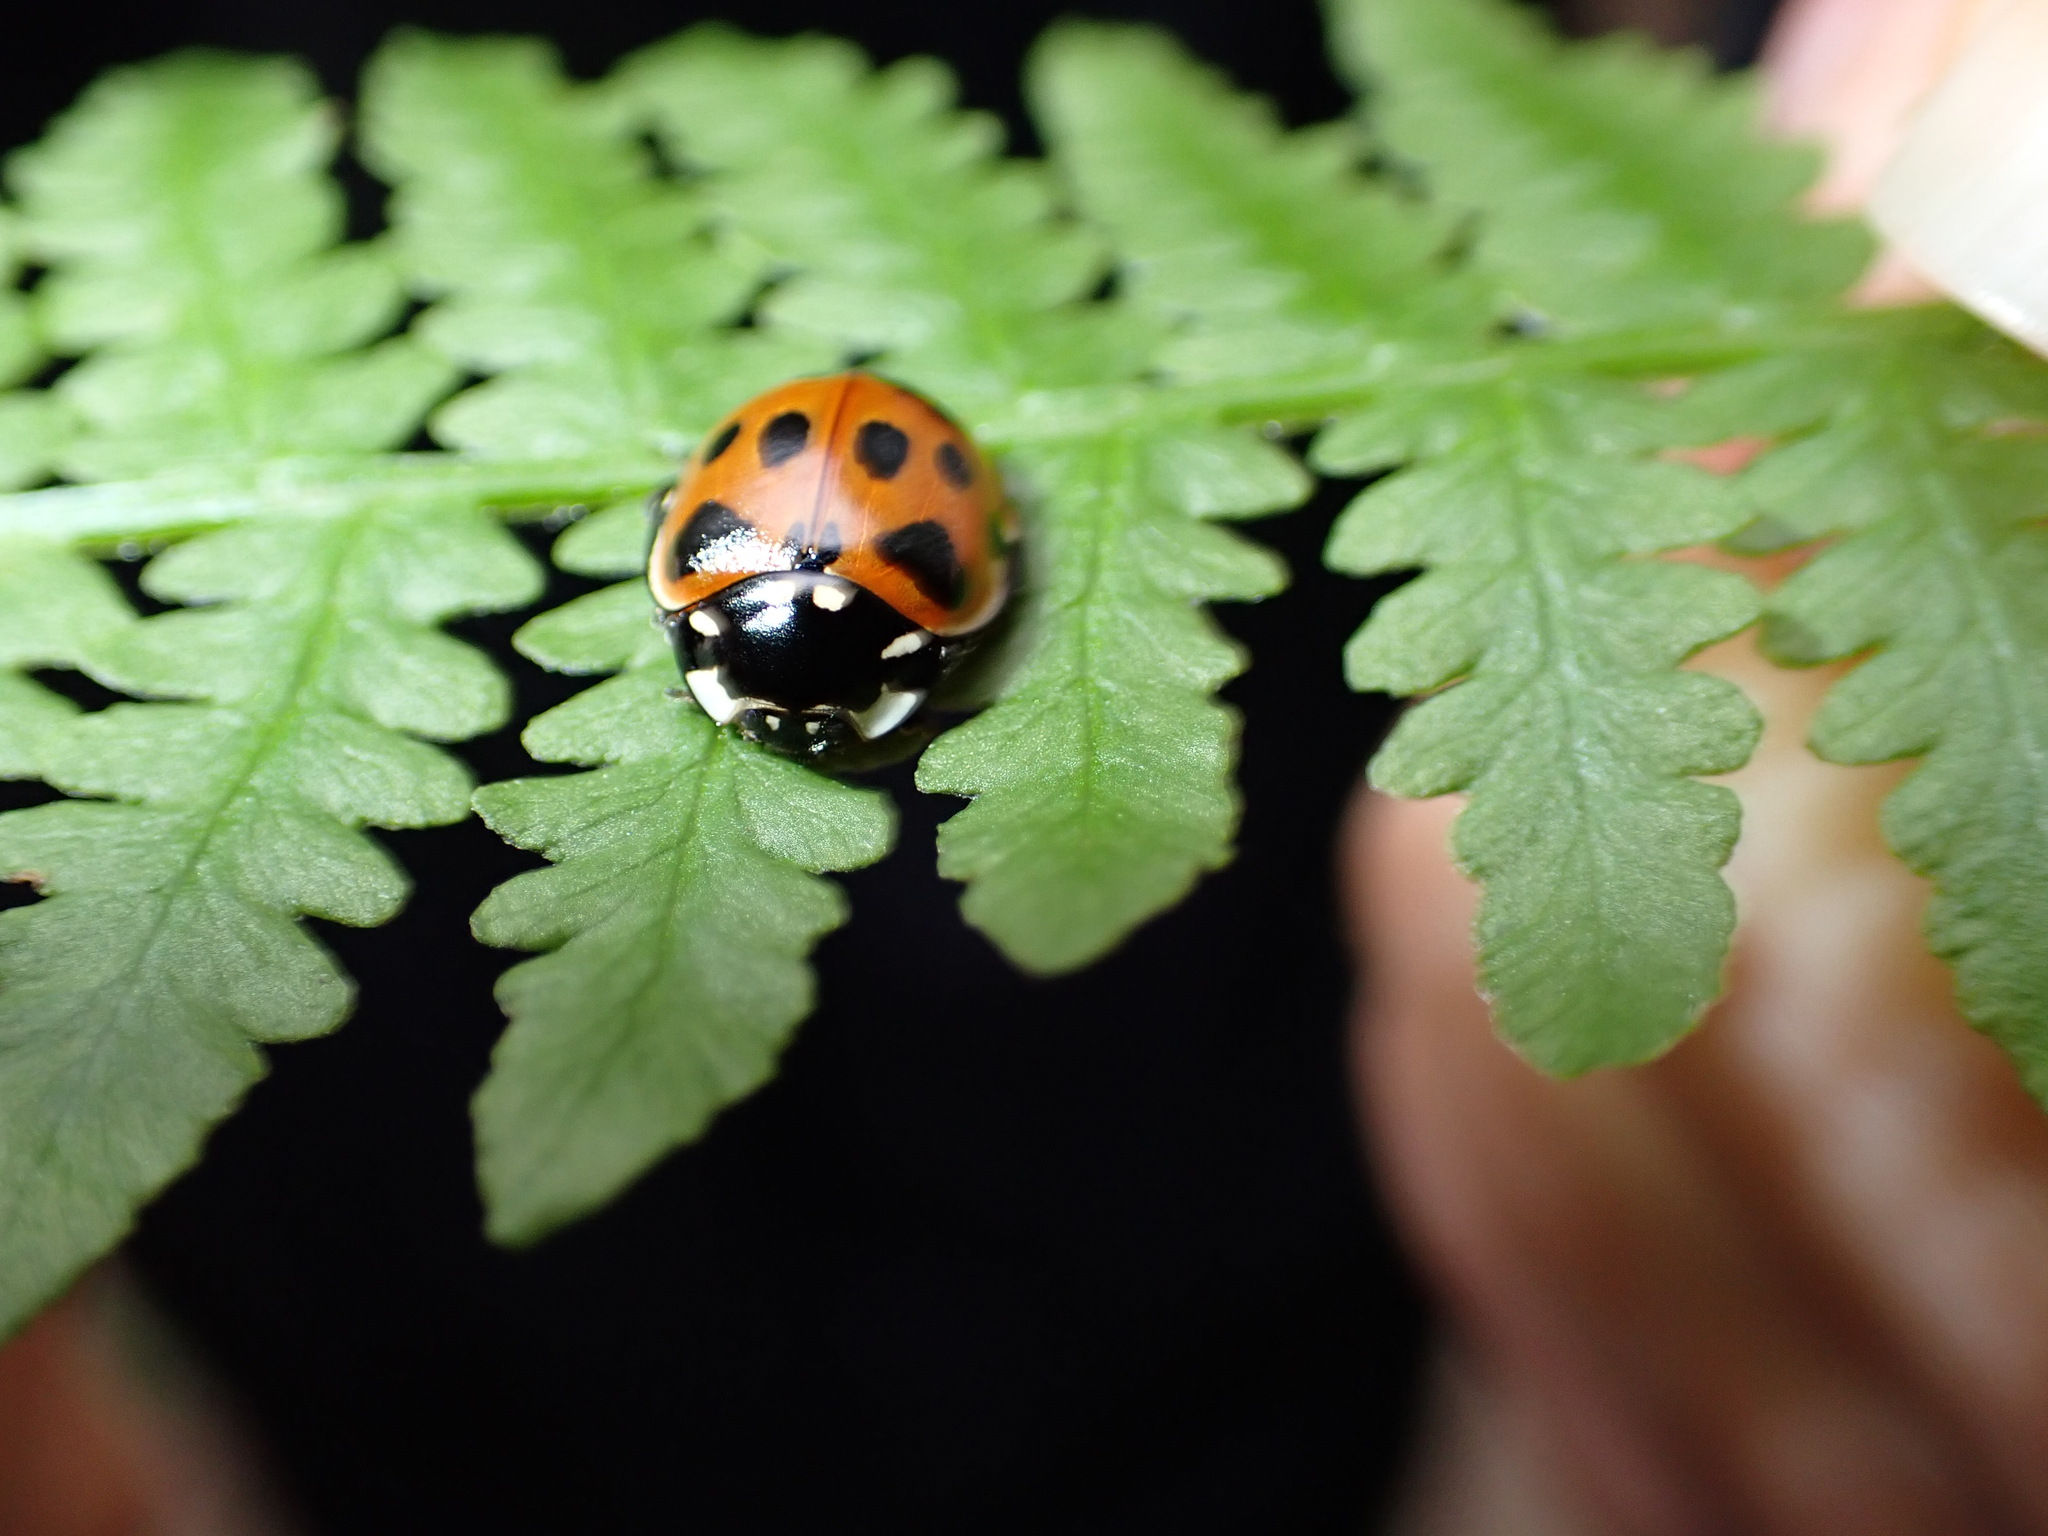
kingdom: Animalia
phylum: Arthropoda
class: Insecta
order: Coleoptera
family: Coccinellidae
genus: Anatis
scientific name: Anatis ocellata
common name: Eyed ladybird
